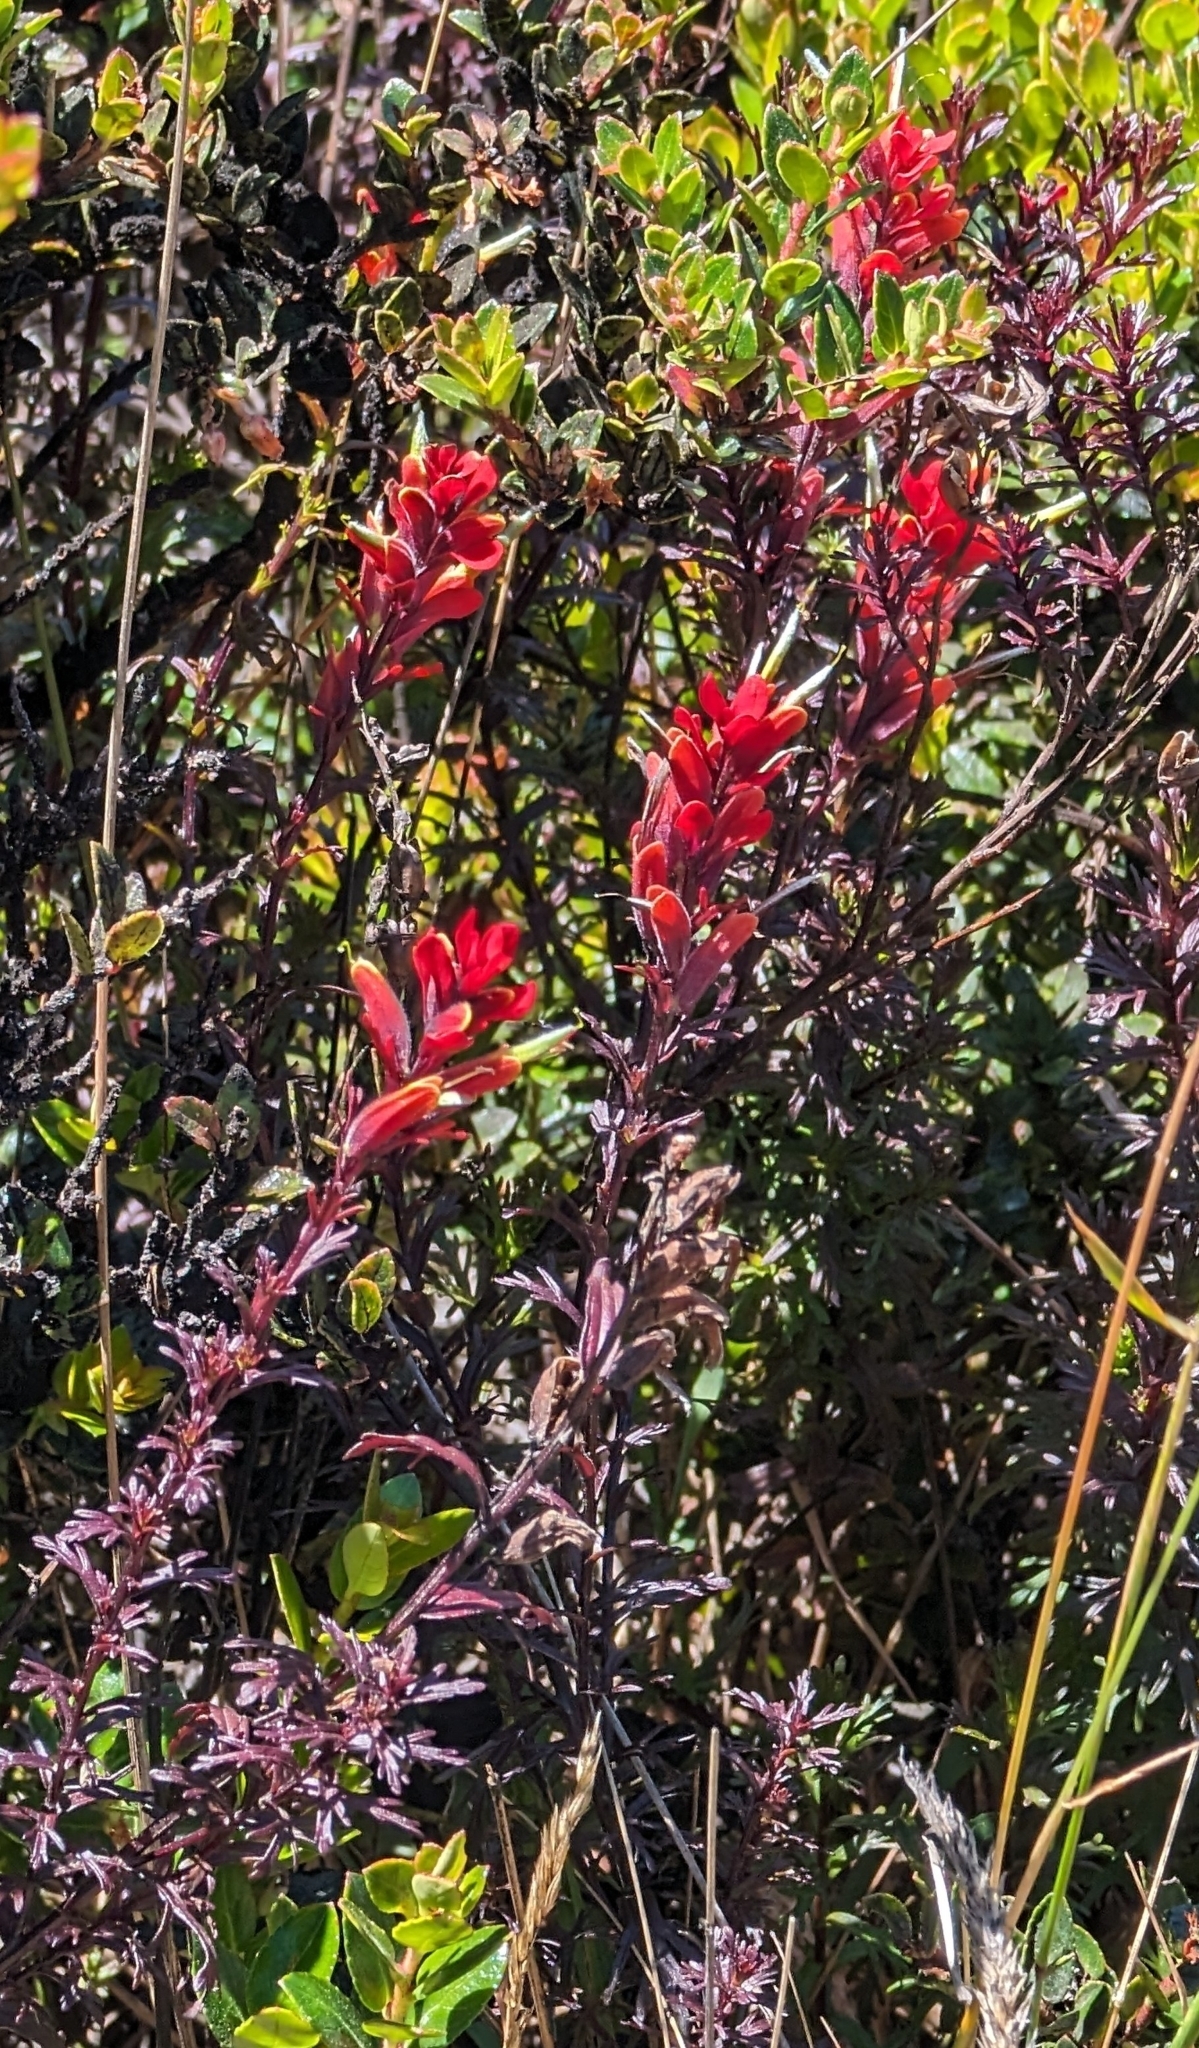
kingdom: Plantae
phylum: Tracheophyta
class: Magnoliopsida
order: Lamiales
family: Orobanchaceae
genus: Castilleja
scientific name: Castilleja irasuensis
